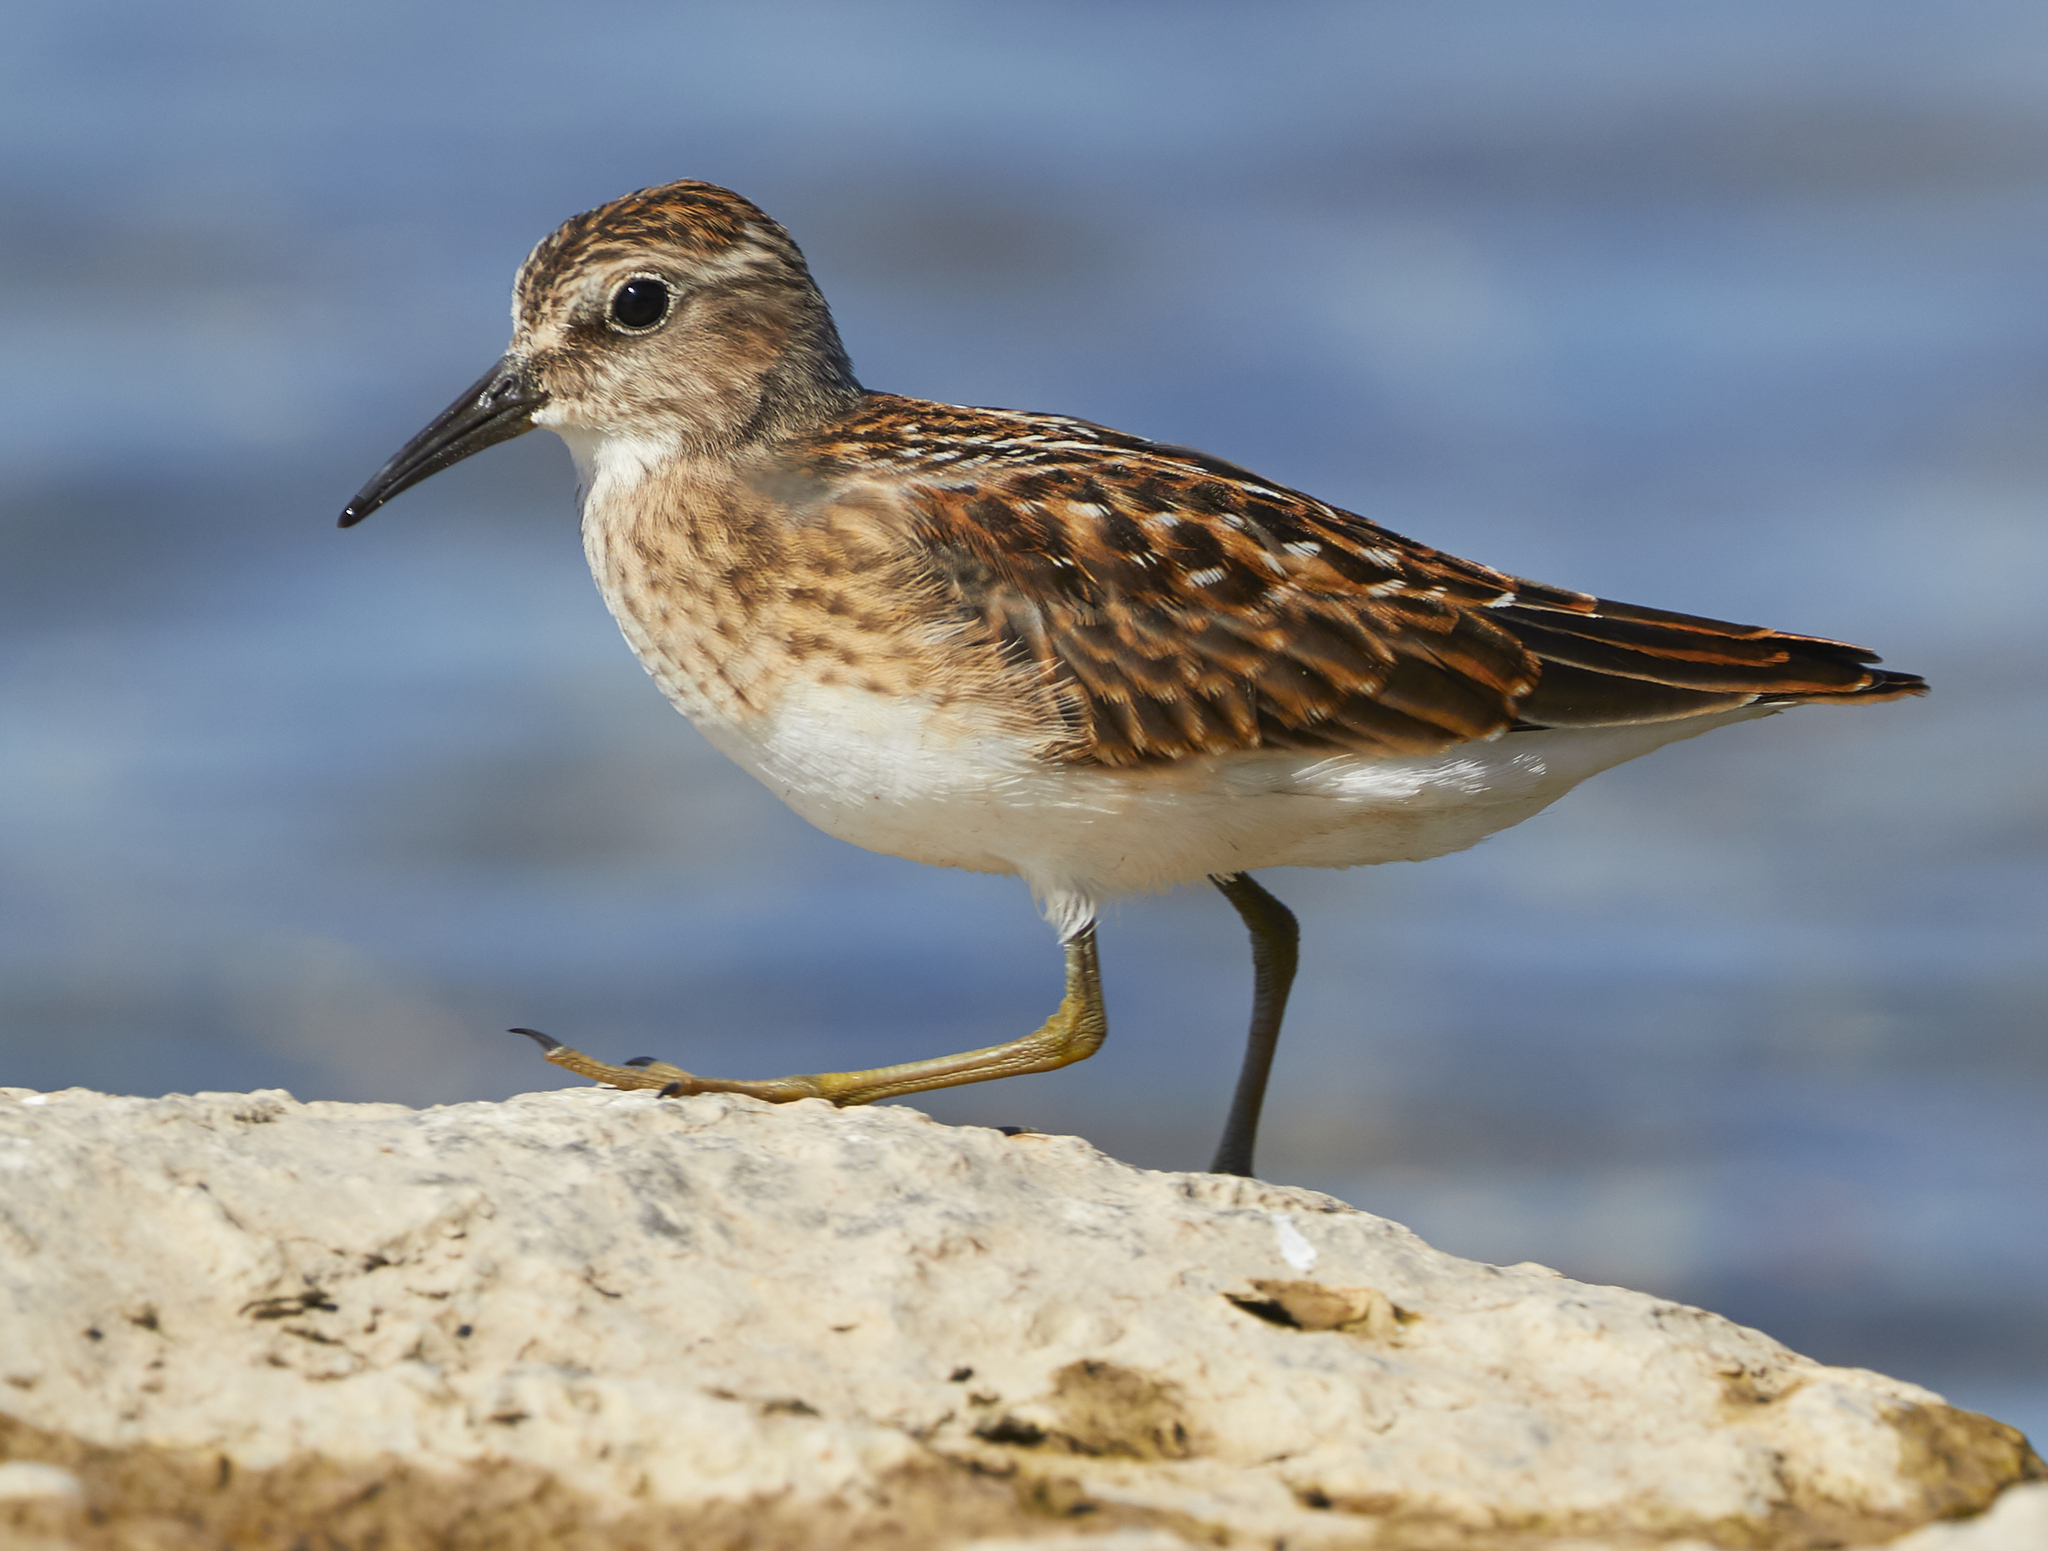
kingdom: Animalia
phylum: Chordata
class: Aves
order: Charadriiformes
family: Scolopacidae
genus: Calidris
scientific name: Calidris minutilla
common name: Least sandpiper
